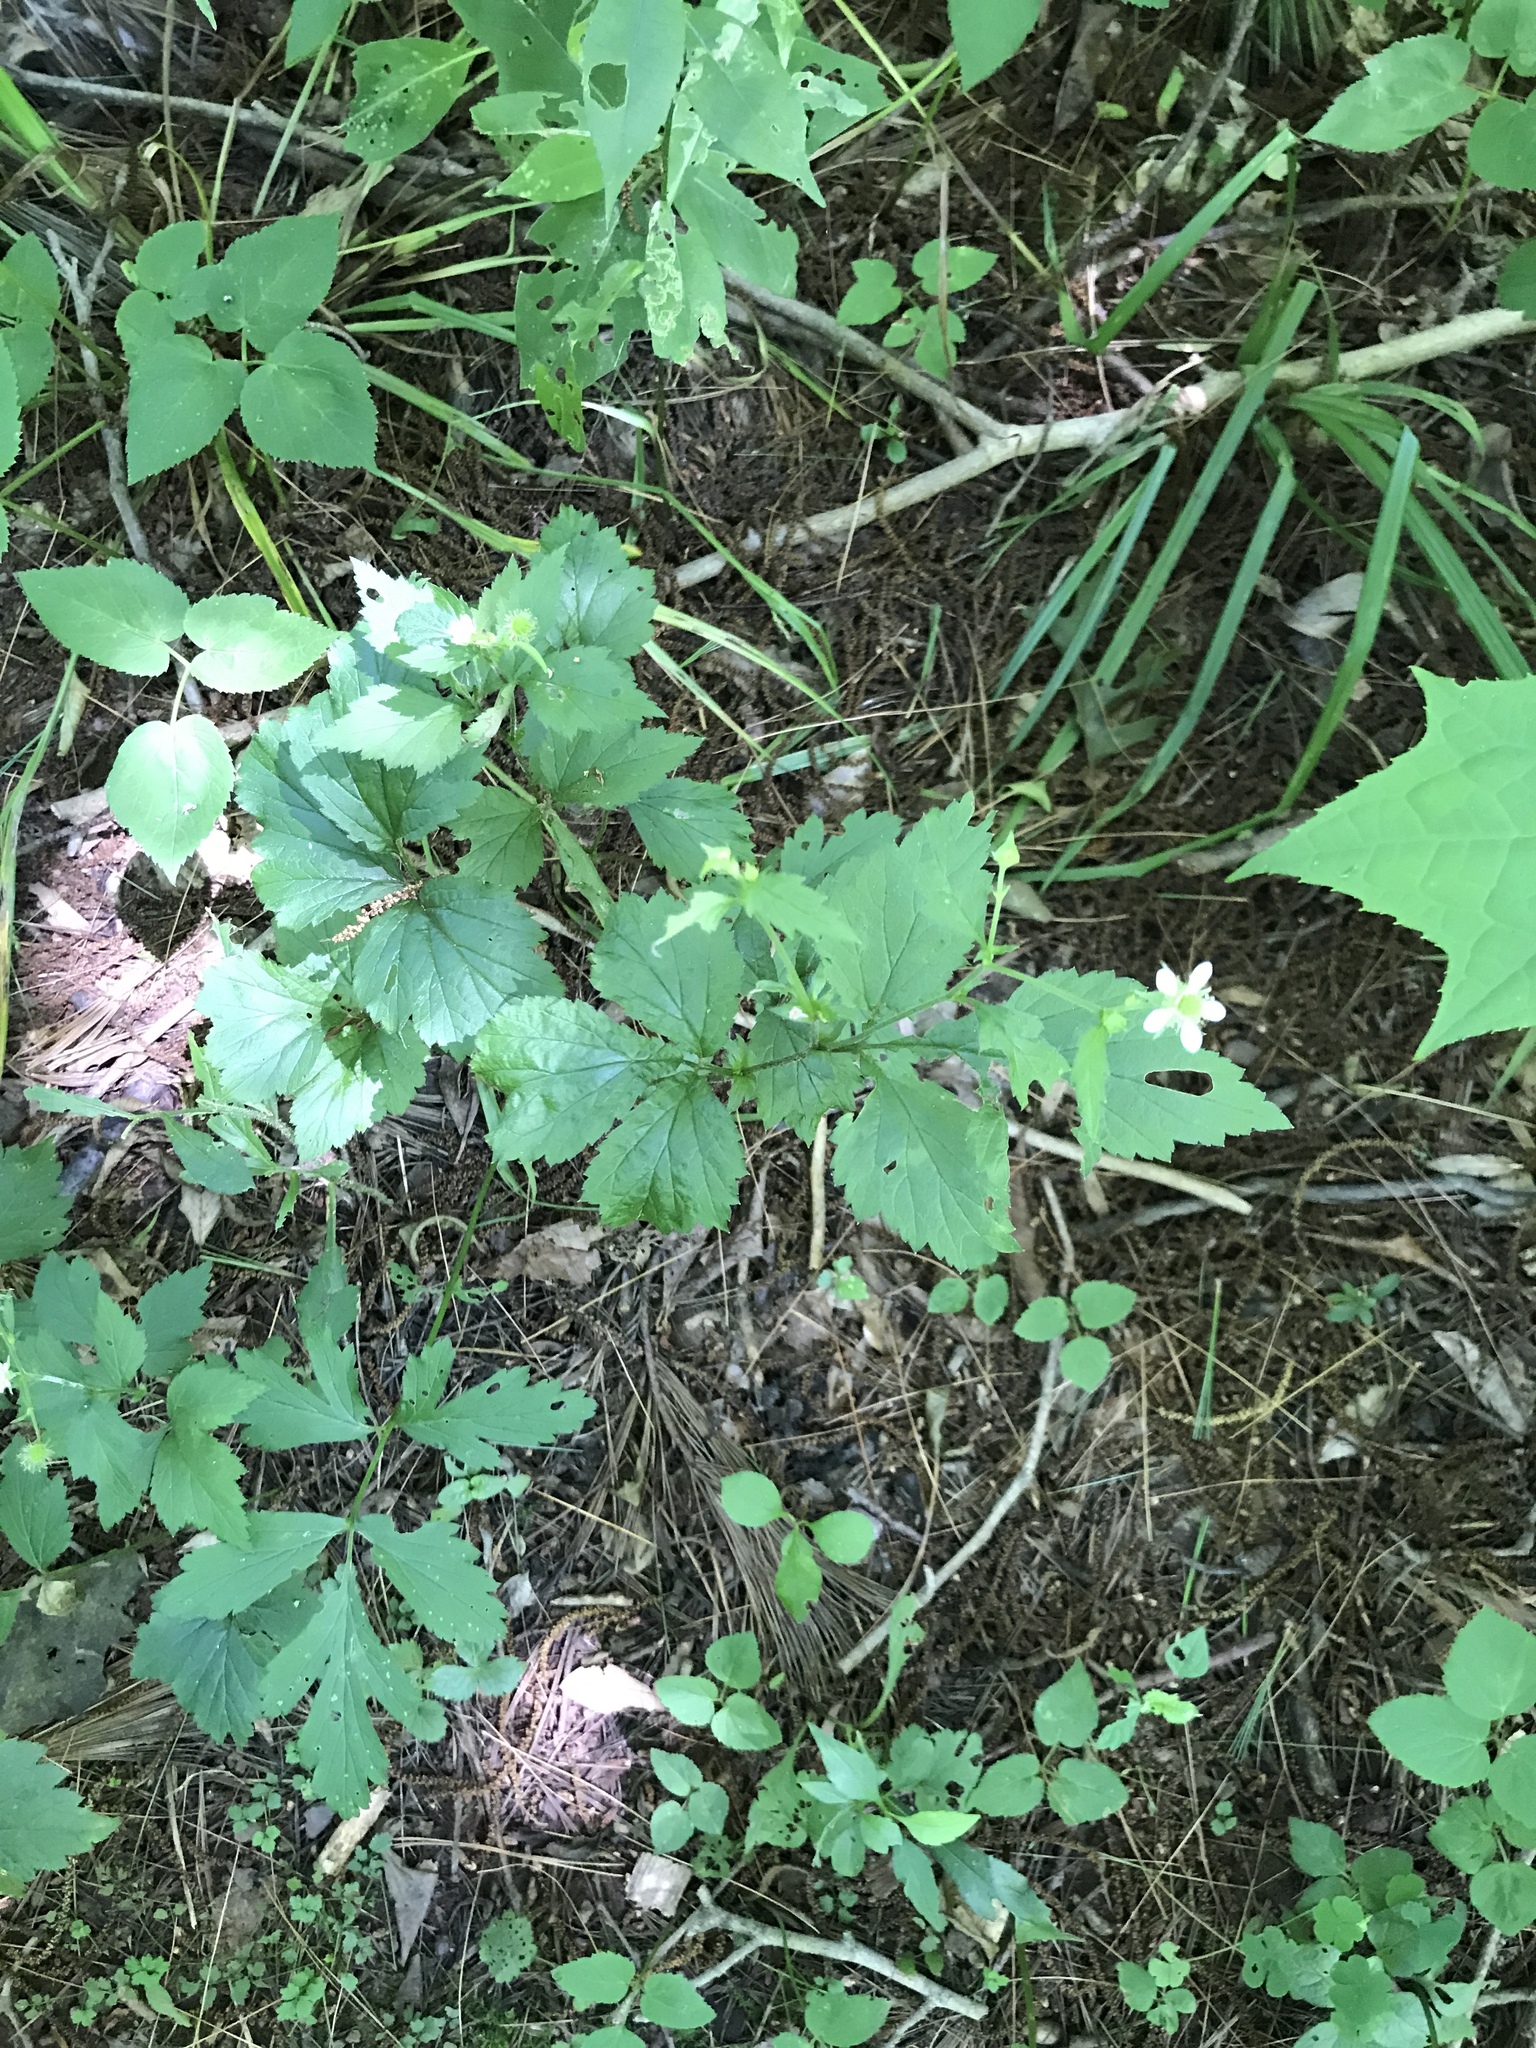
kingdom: Plantae
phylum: Tracheophyta
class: Magnoliopsida
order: Rosales
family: Rosaceae
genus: Geum
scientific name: Geum canadense
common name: White avens
